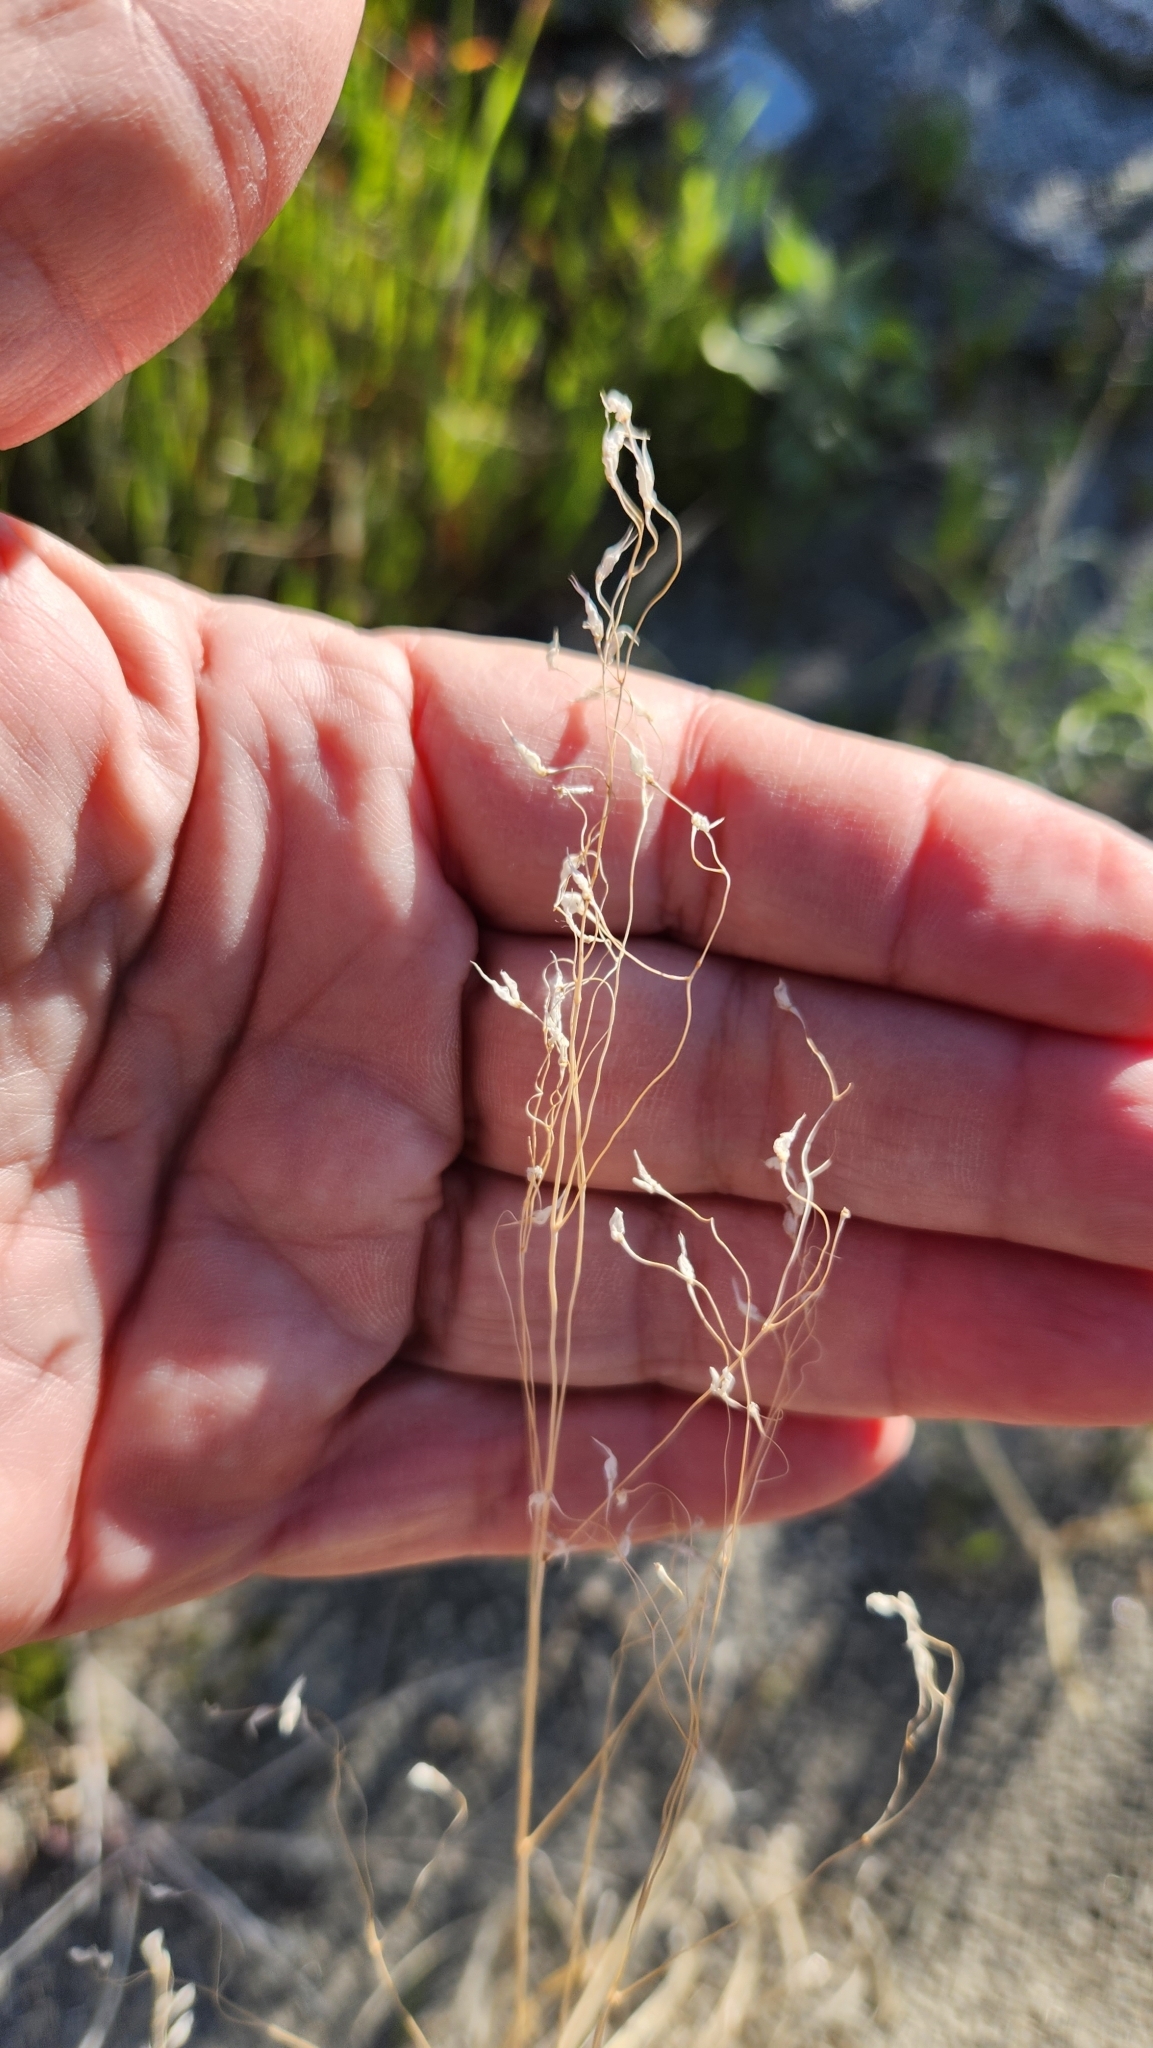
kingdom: Plantae
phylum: Tracheophyta
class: Liliopsida
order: Poales
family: Poaceae
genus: Eriocoma
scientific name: Eriocoma hymenoides
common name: Indian mountain ricegrass
